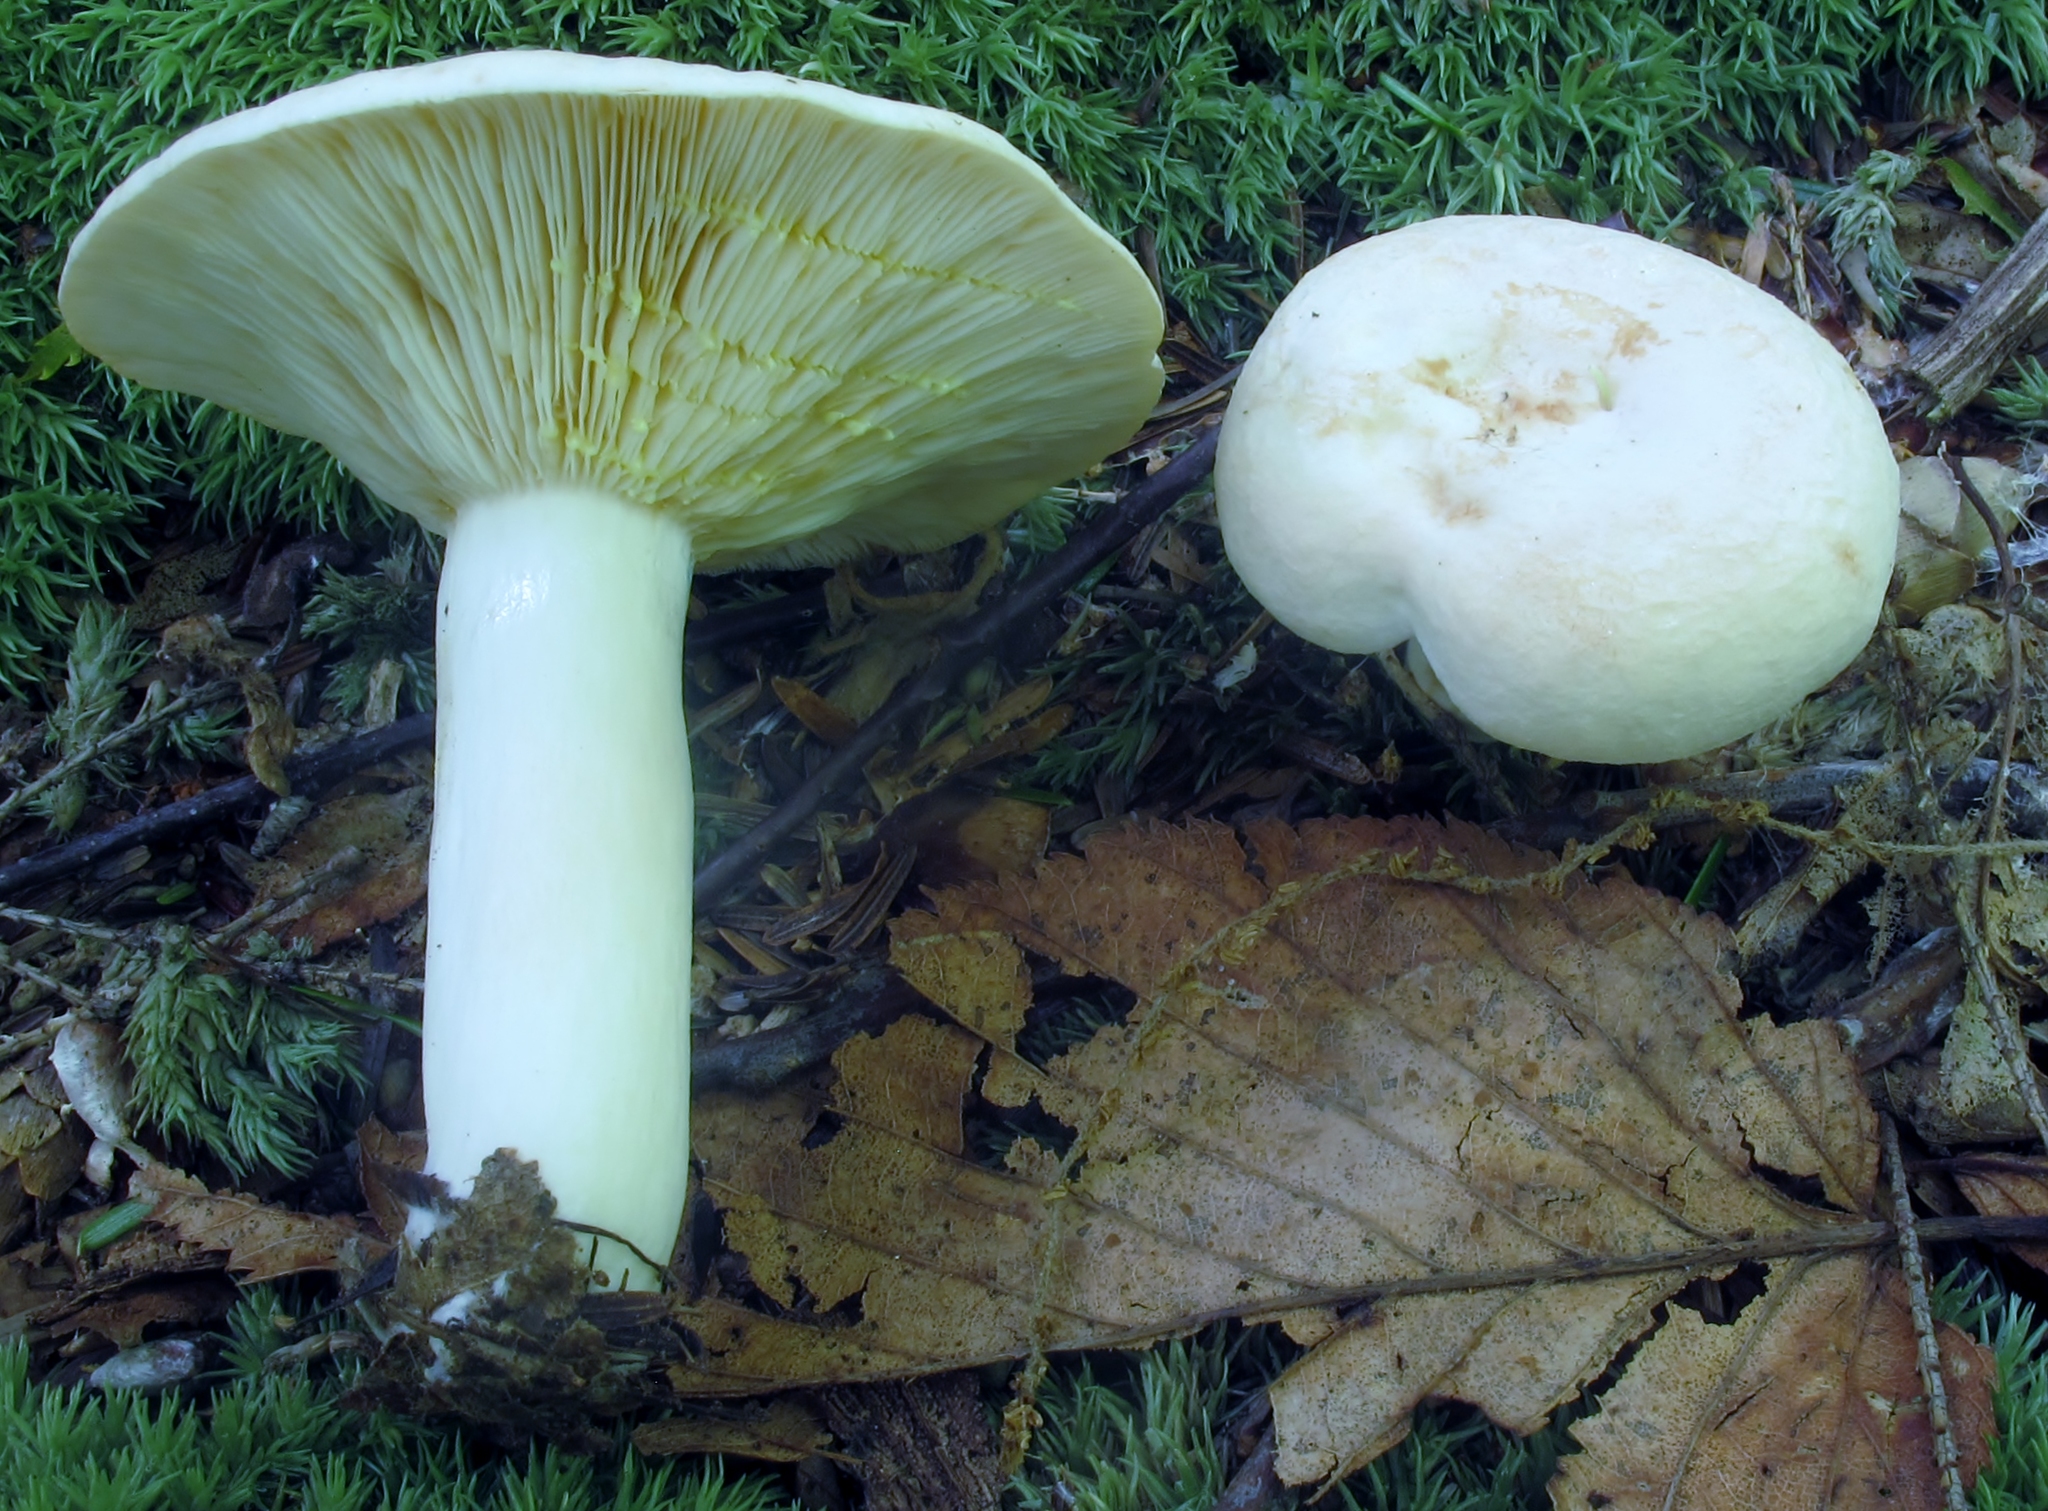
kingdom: Fungi
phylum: Basidiomycota
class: Agaricomycetes
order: Russulales
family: Russulaceae
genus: Lactarius
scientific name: Lactarius chrysorrheus
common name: Yellowdrop milkcap
